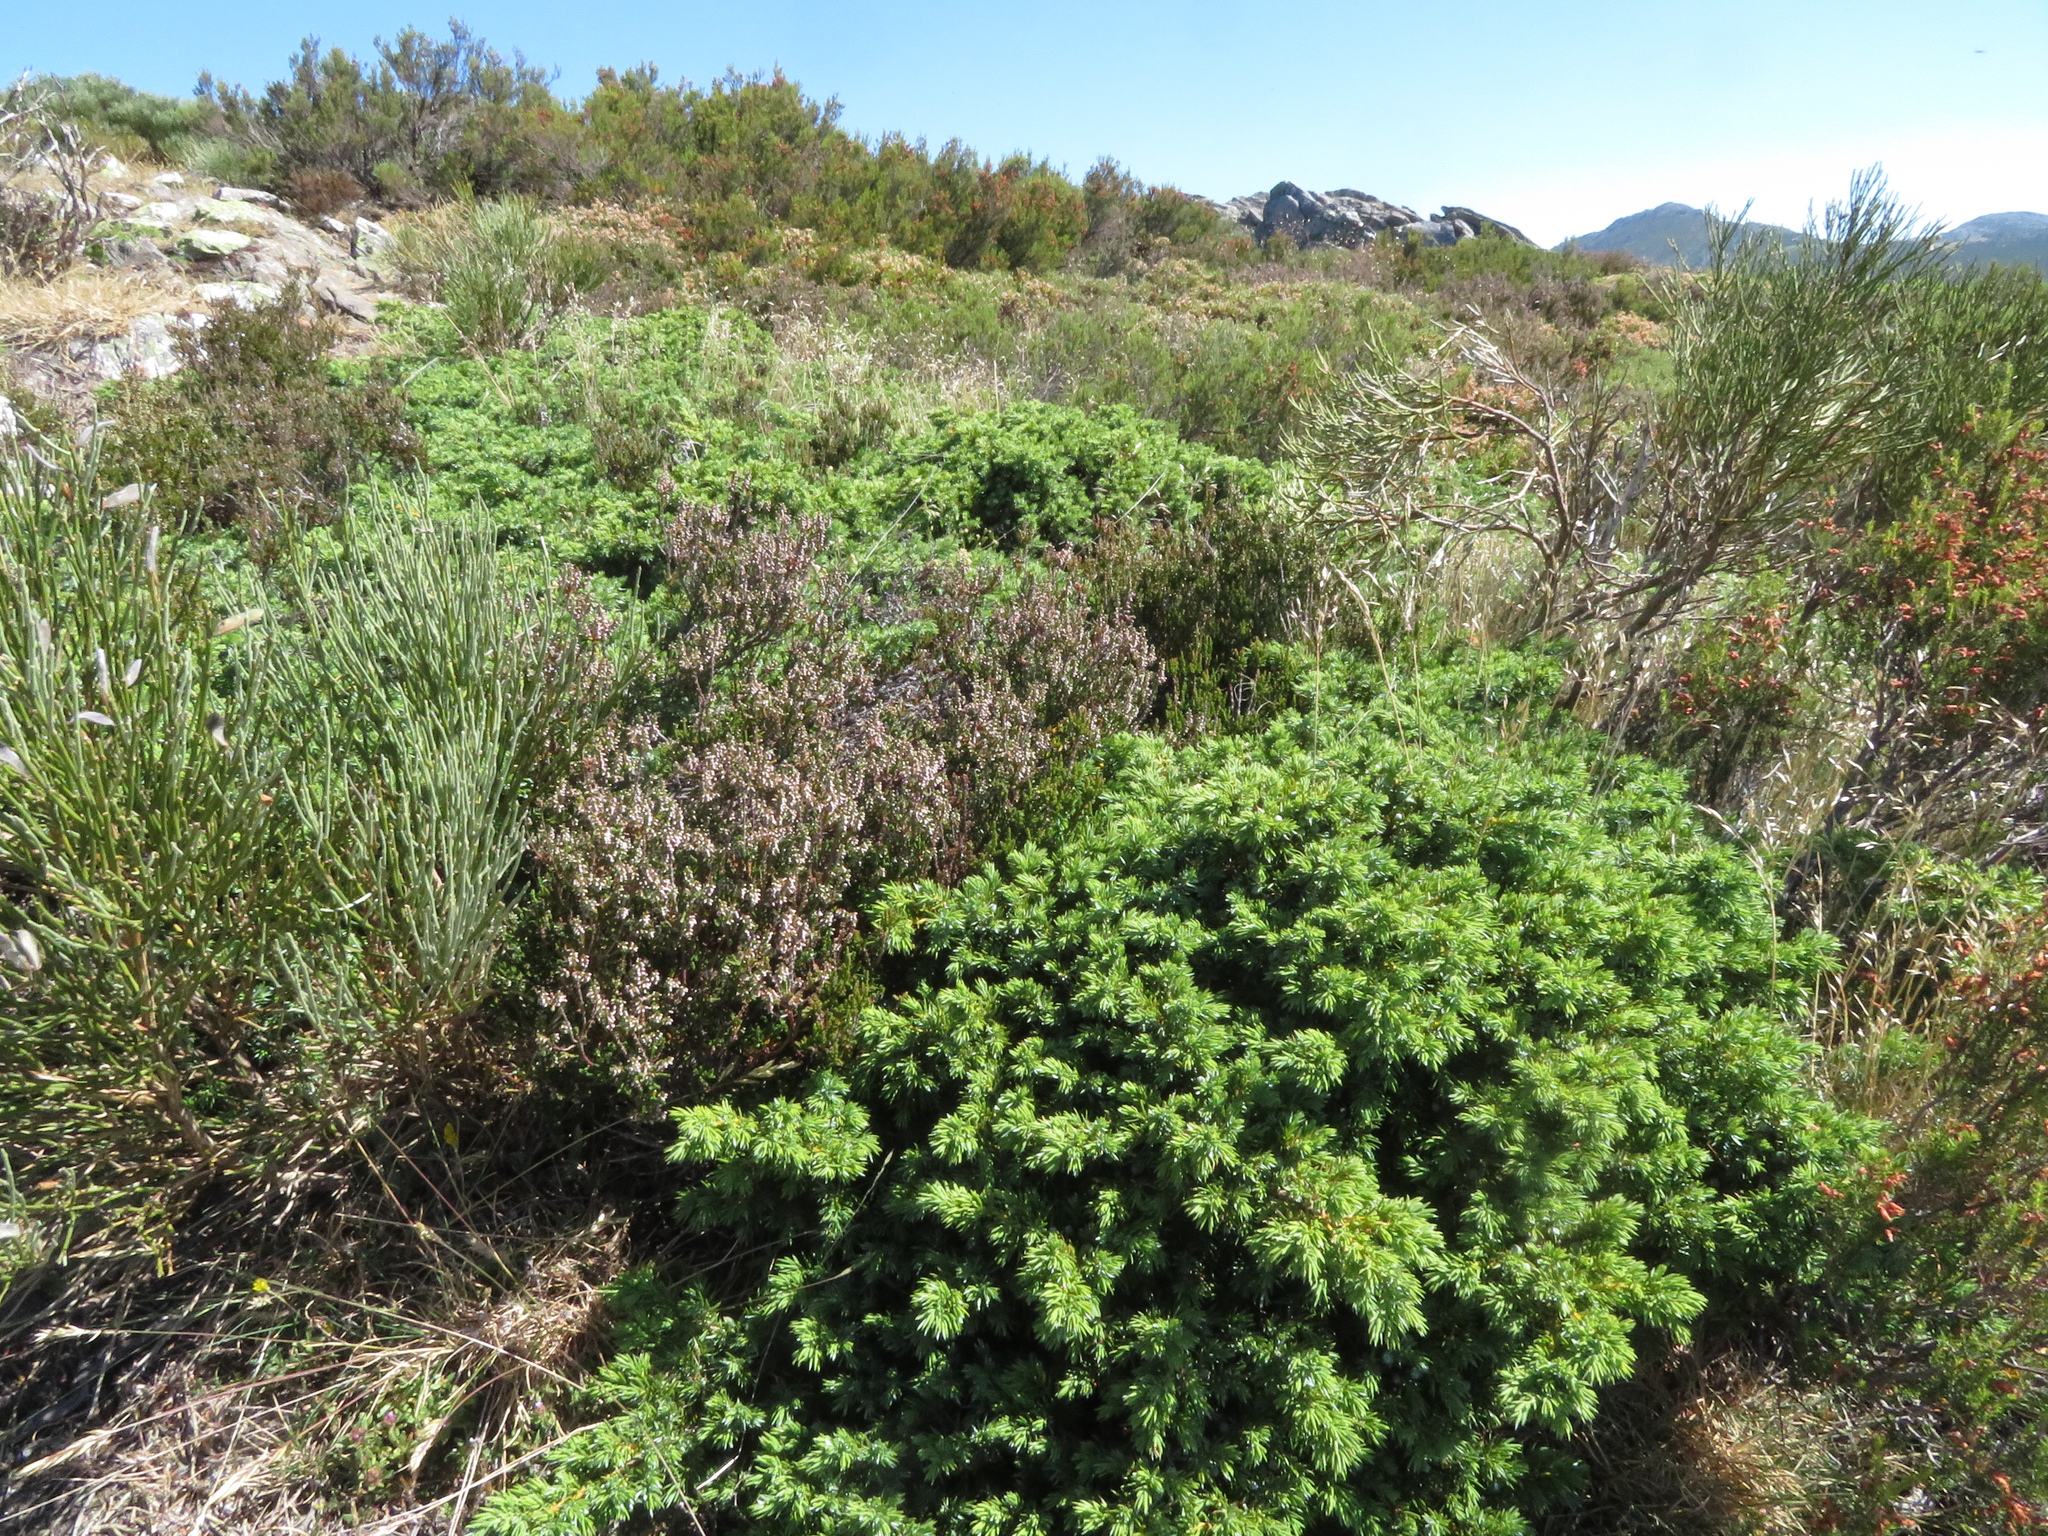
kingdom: Plantae
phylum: Tracheophyta
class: Pinopsida
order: Pinales
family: Cupressaceae
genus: Juniperus
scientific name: Juniperus communis
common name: Common juniper
